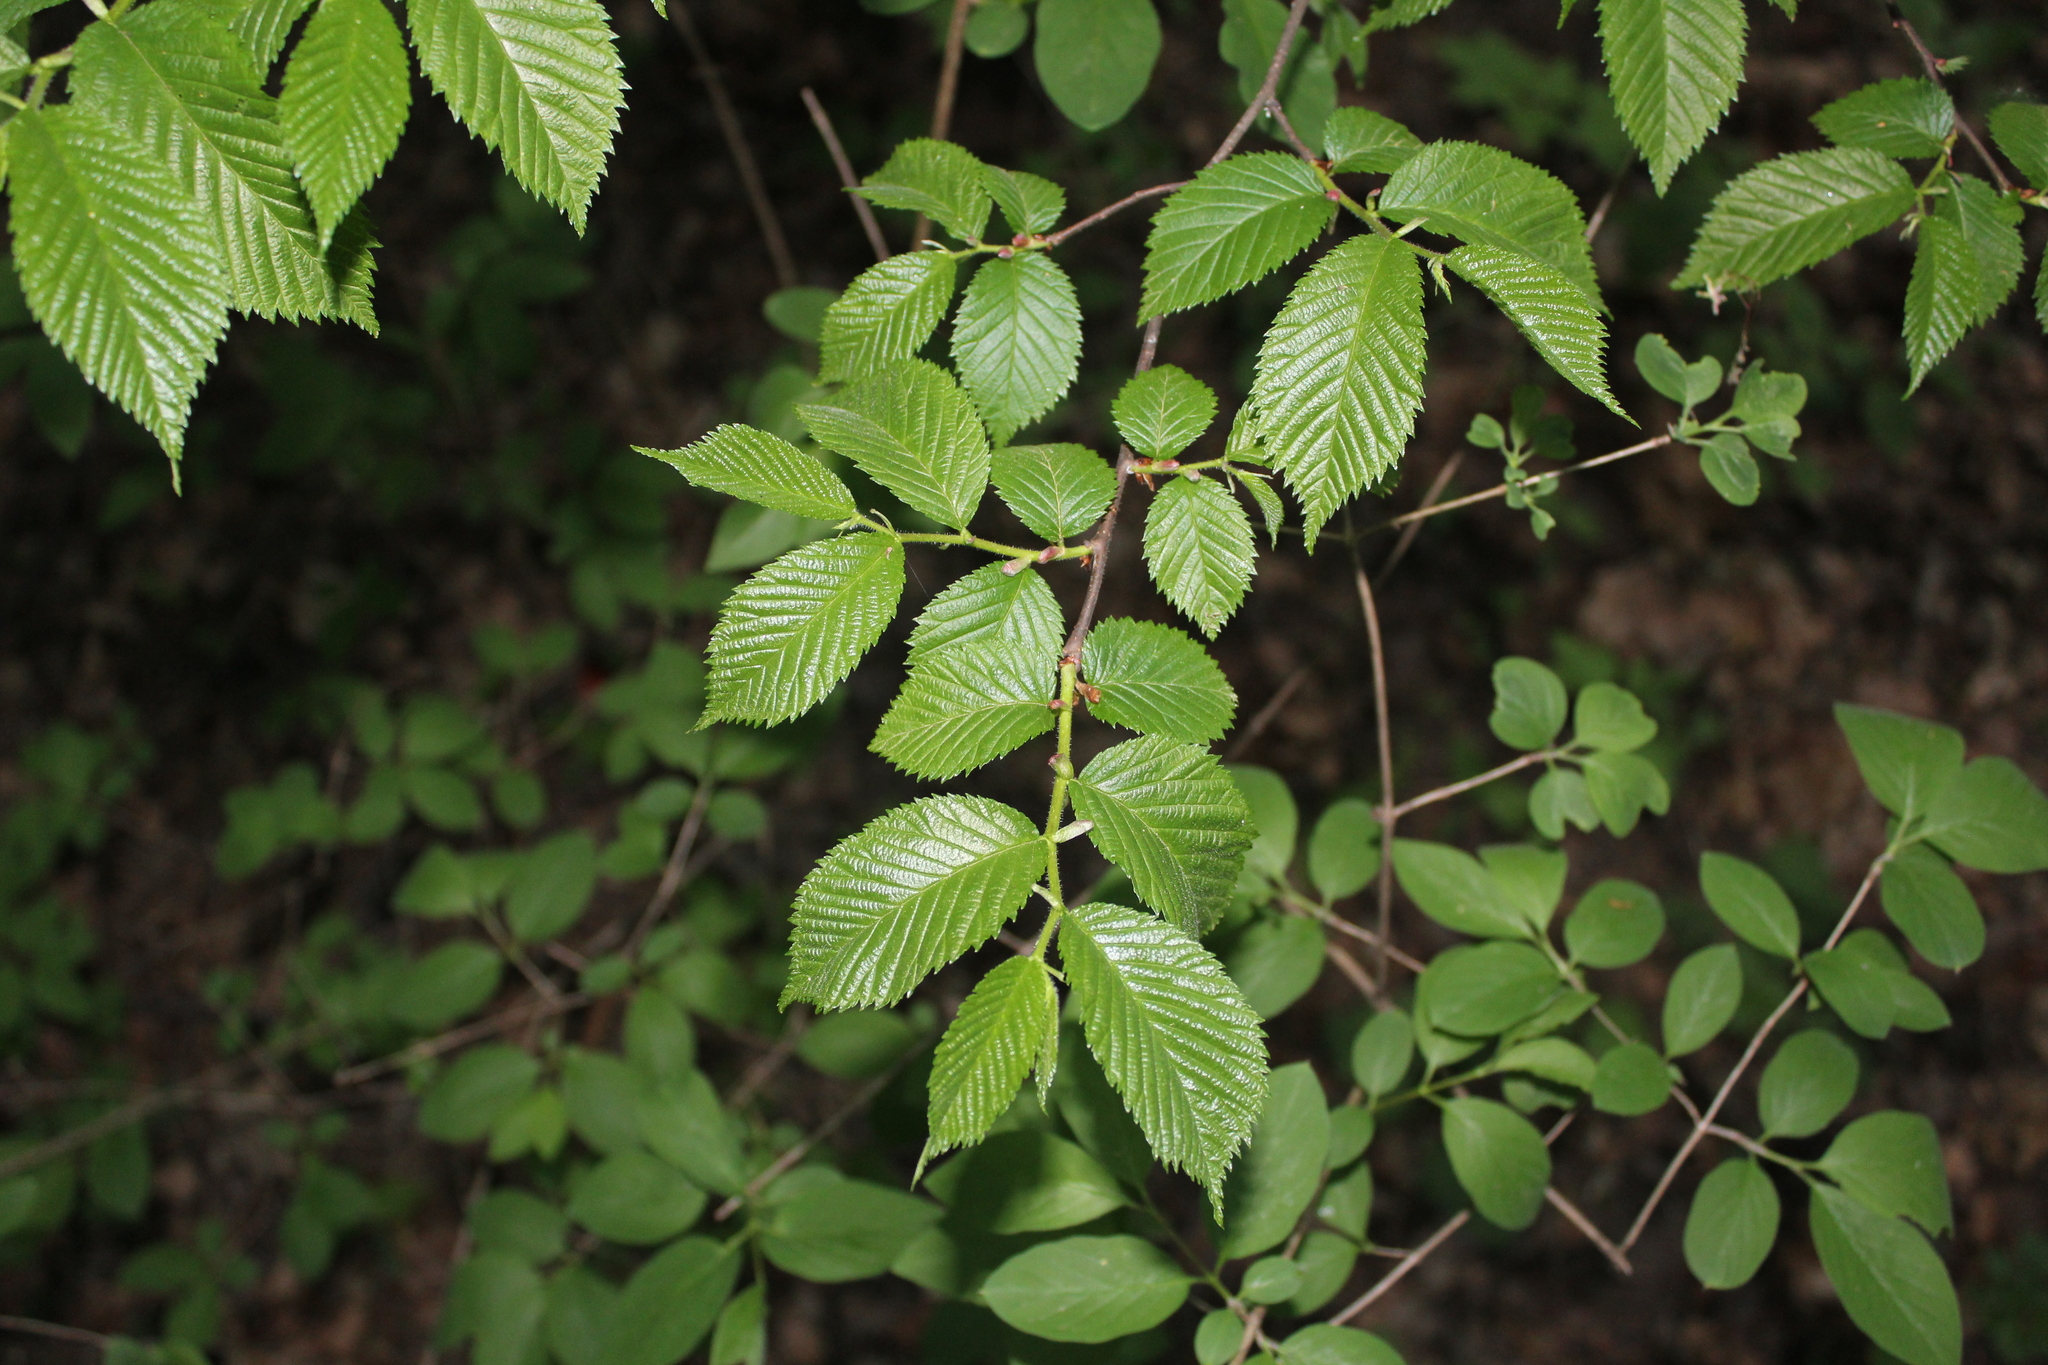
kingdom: Plantae
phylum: Tracheophyta
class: Magnoliopsida
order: Rosales
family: Ulmaceae
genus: Ulmus
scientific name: Ulmus glabra
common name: Wych elm
